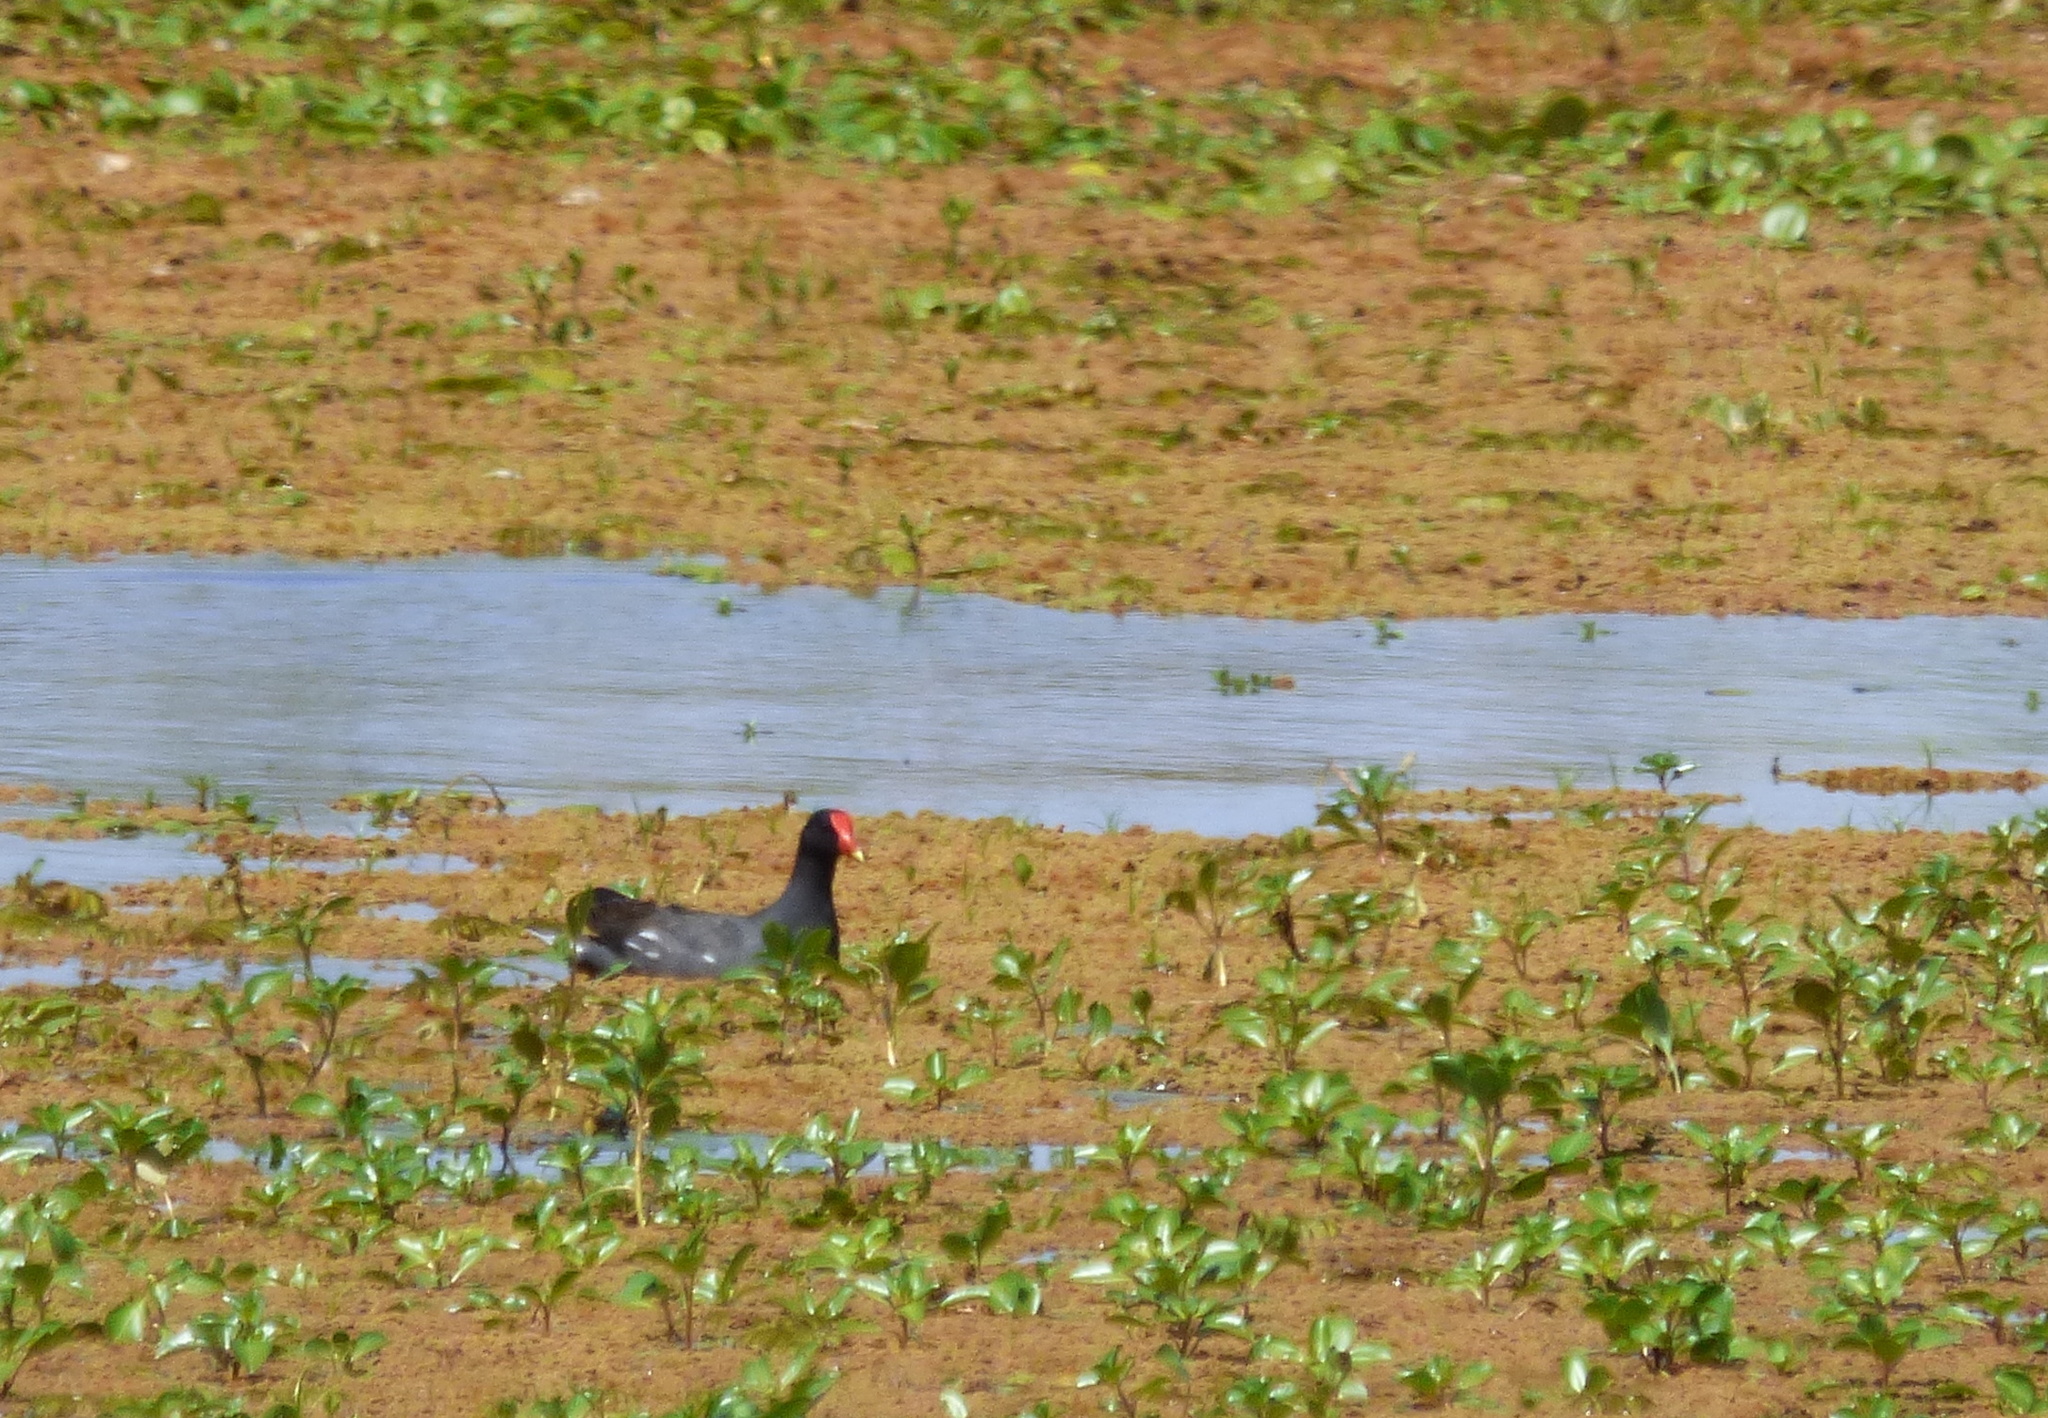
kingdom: Animalia
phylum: Chordata
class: Aves
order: Gruiformes
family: Rallidae
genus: Gallinula
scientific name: Gallinula chloropus
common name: Common moorhen
